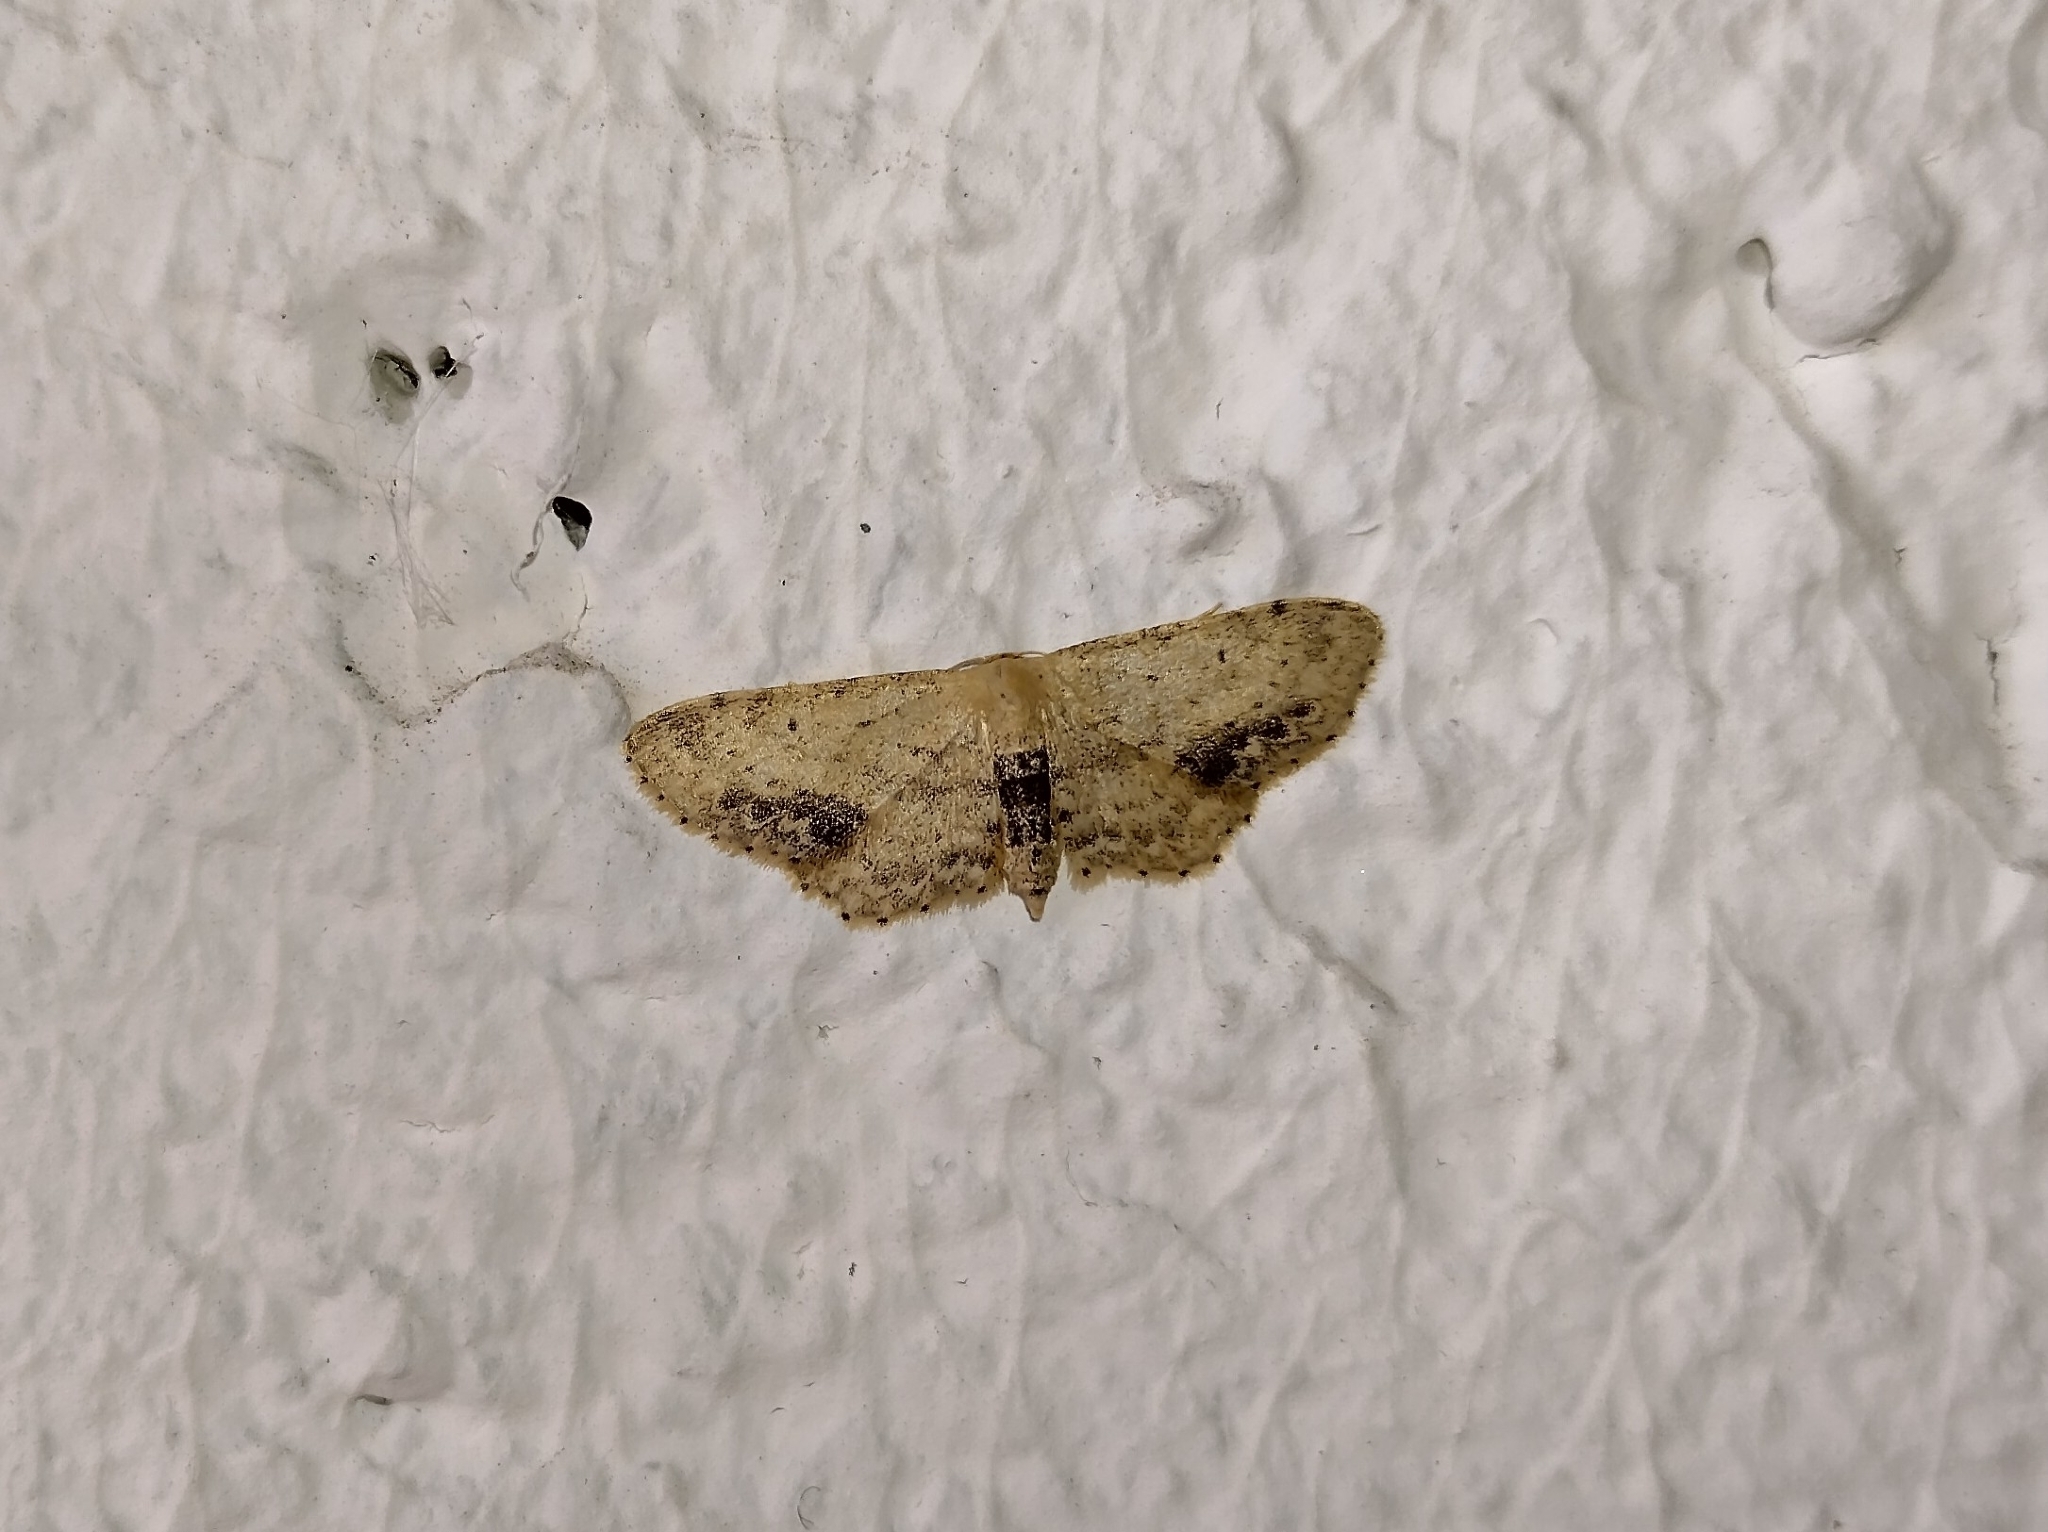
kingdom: Animalia
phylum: Arthropoda
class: Insecta
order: Lepidoptera
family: Geometridae
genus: Idaea
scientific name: Idaea dimidiata
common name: Single-dotted wave
